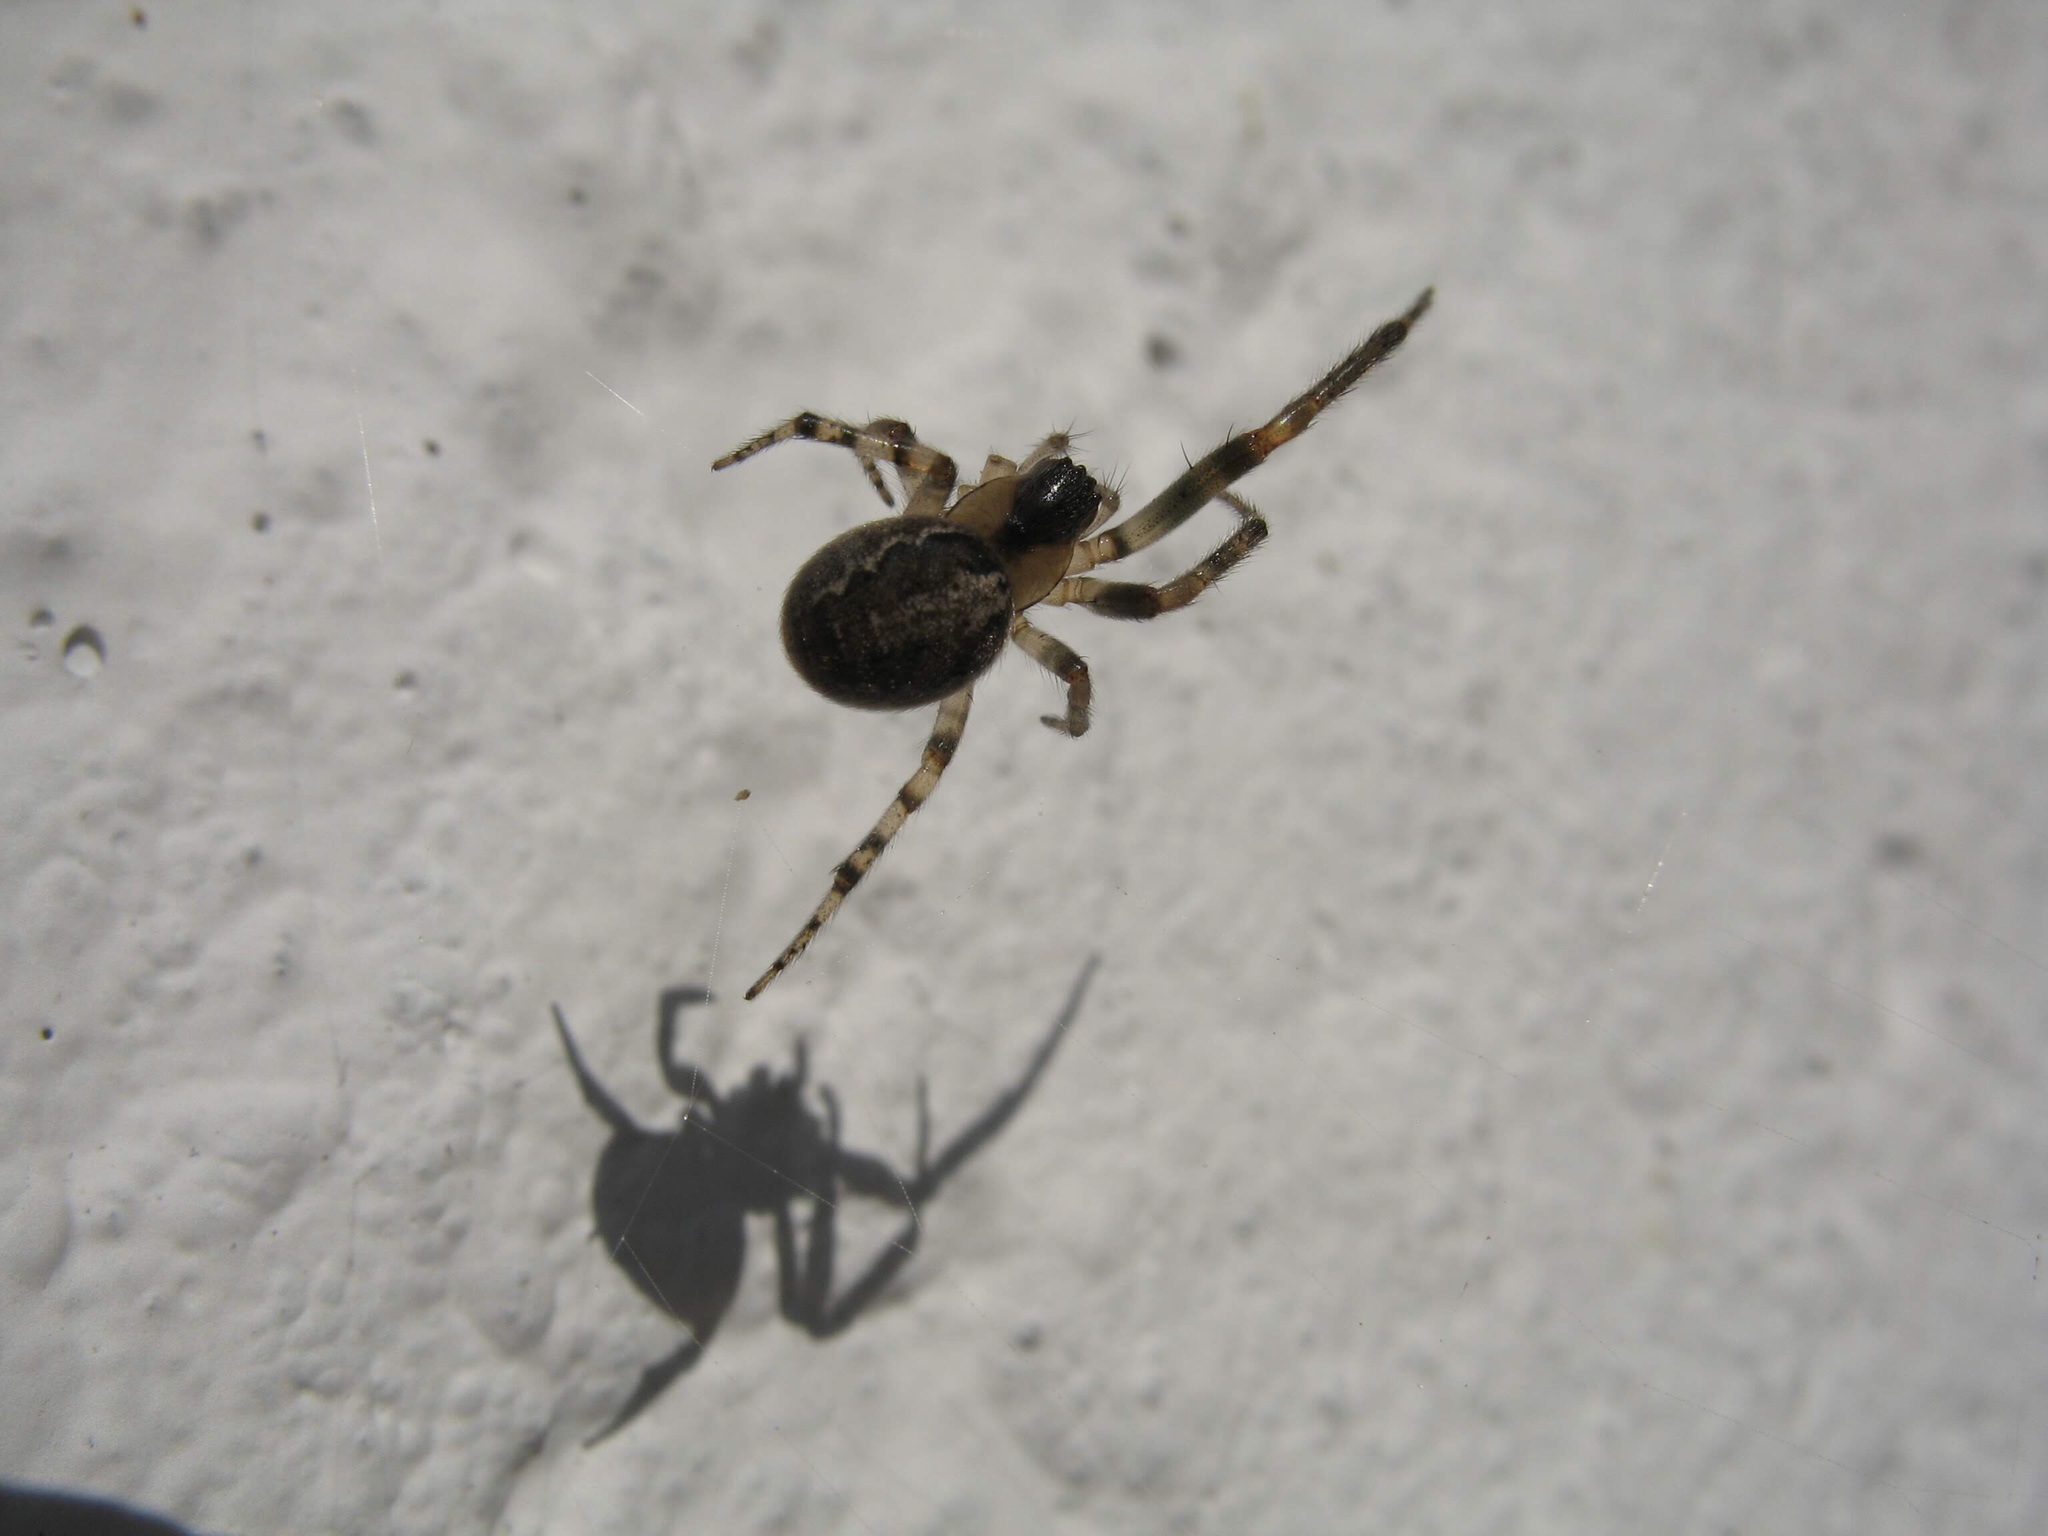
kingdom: Animalia
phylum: Arthropoda
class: Arachnida
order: Araneae
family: Araneidae
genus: Zygiella
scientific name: Zygiella x-notata
